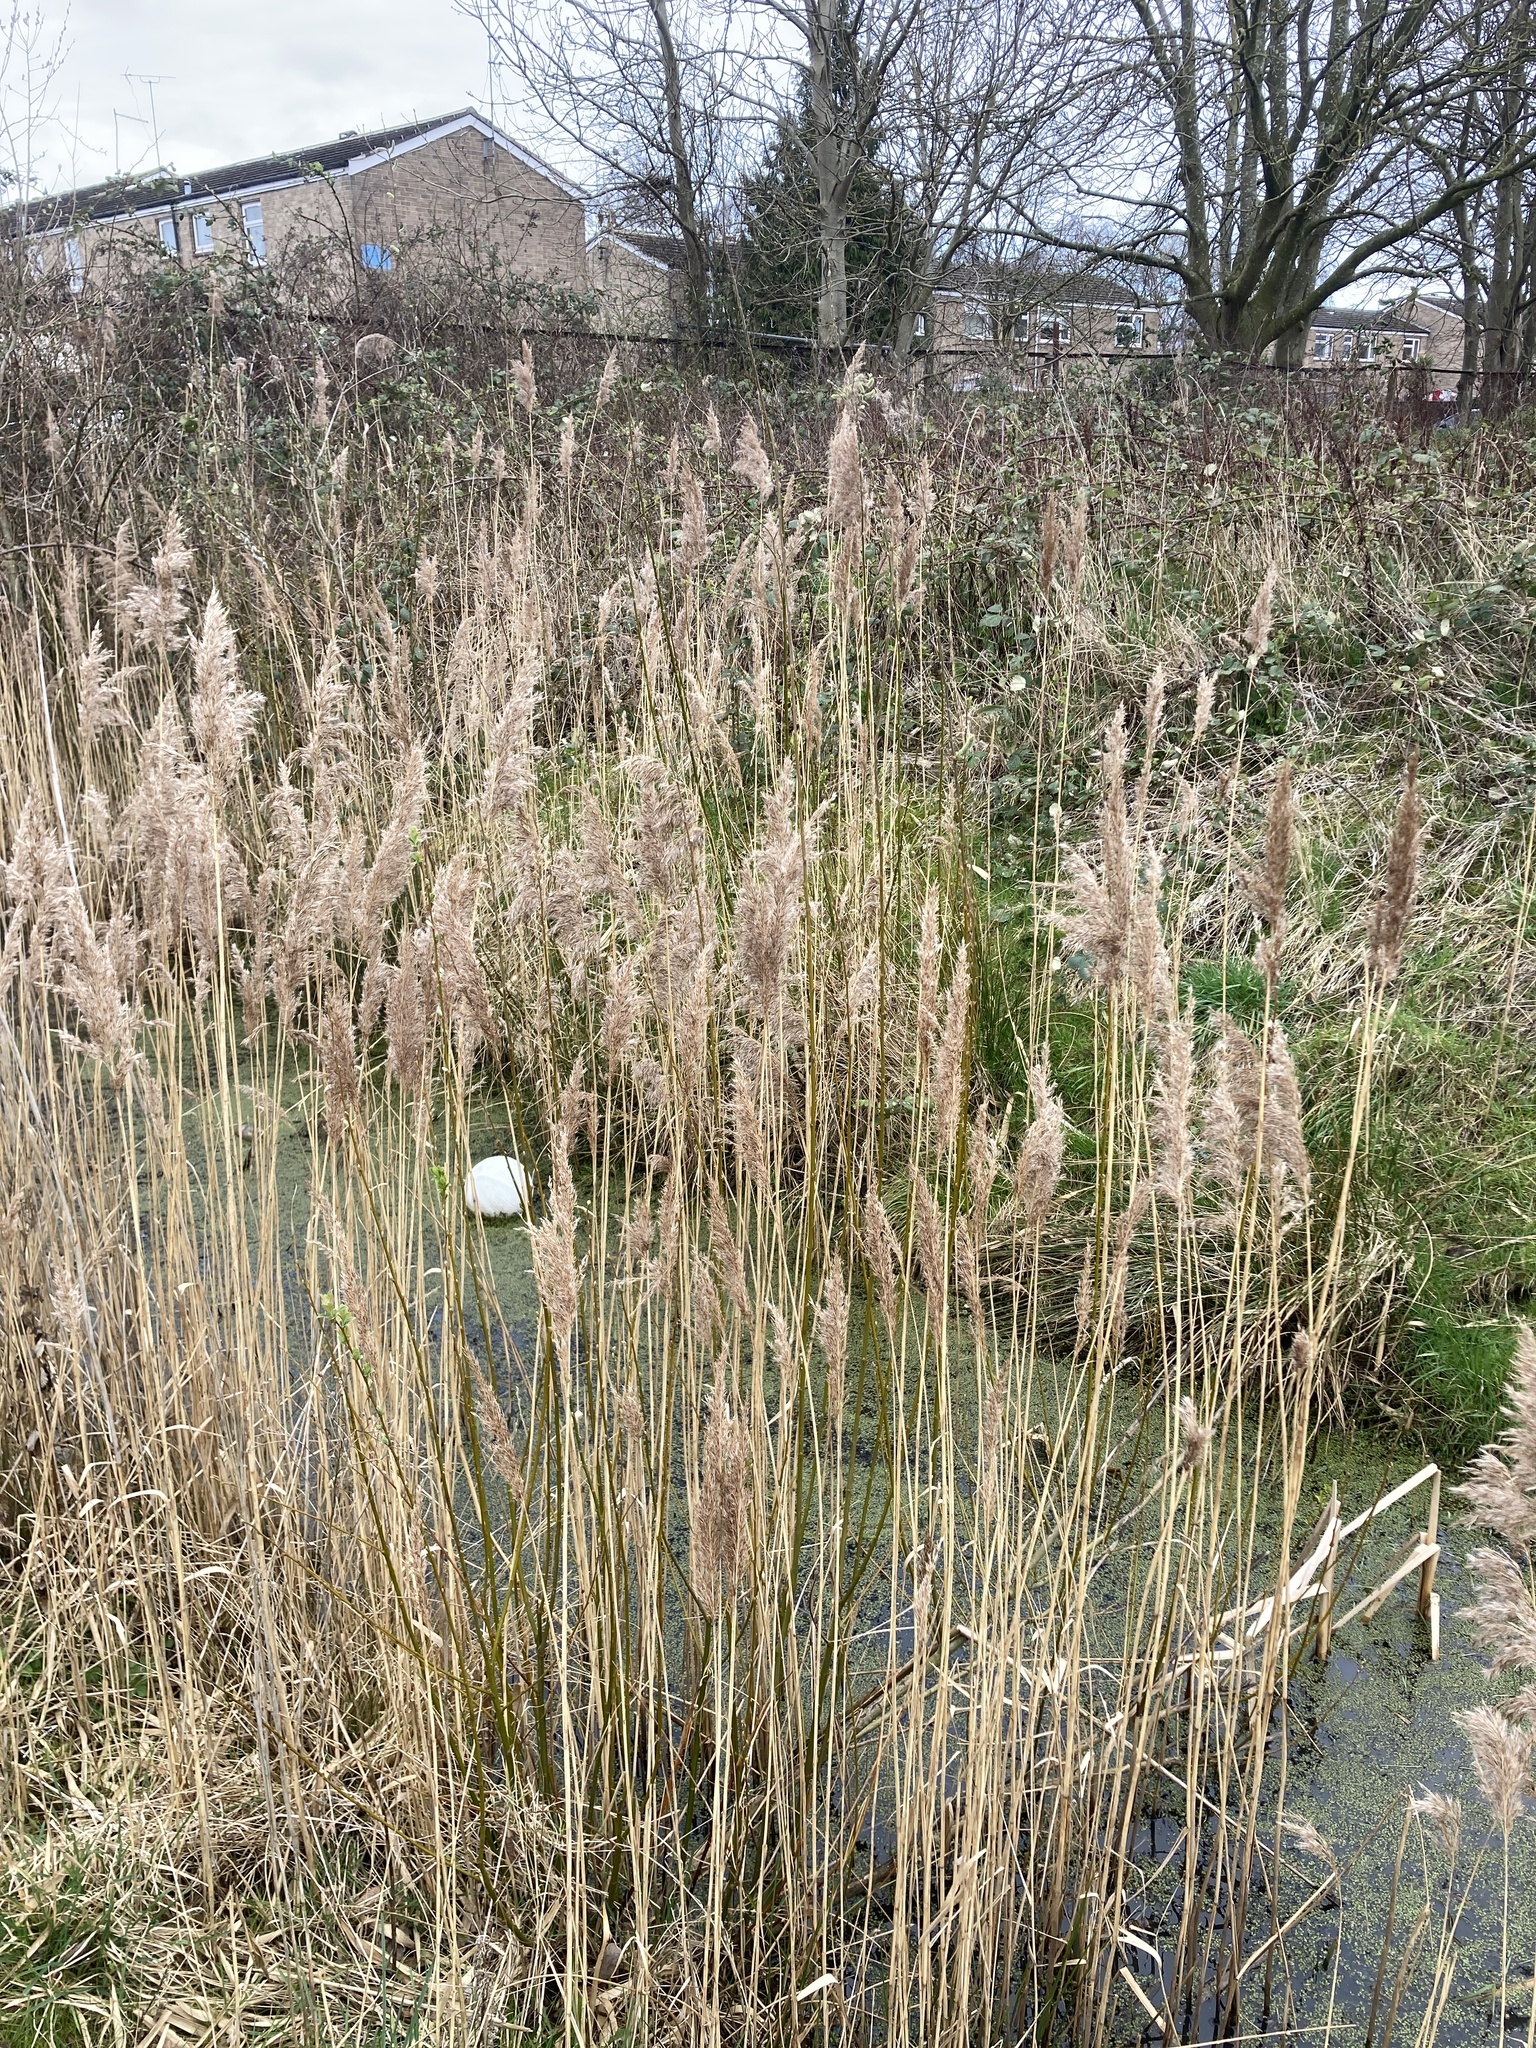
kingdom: Plantae
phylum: Tracheophyta
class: Liliopsida
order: Poales
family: Poaceae
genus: Phragmites
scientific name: Phragmites australis
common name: Common reed
